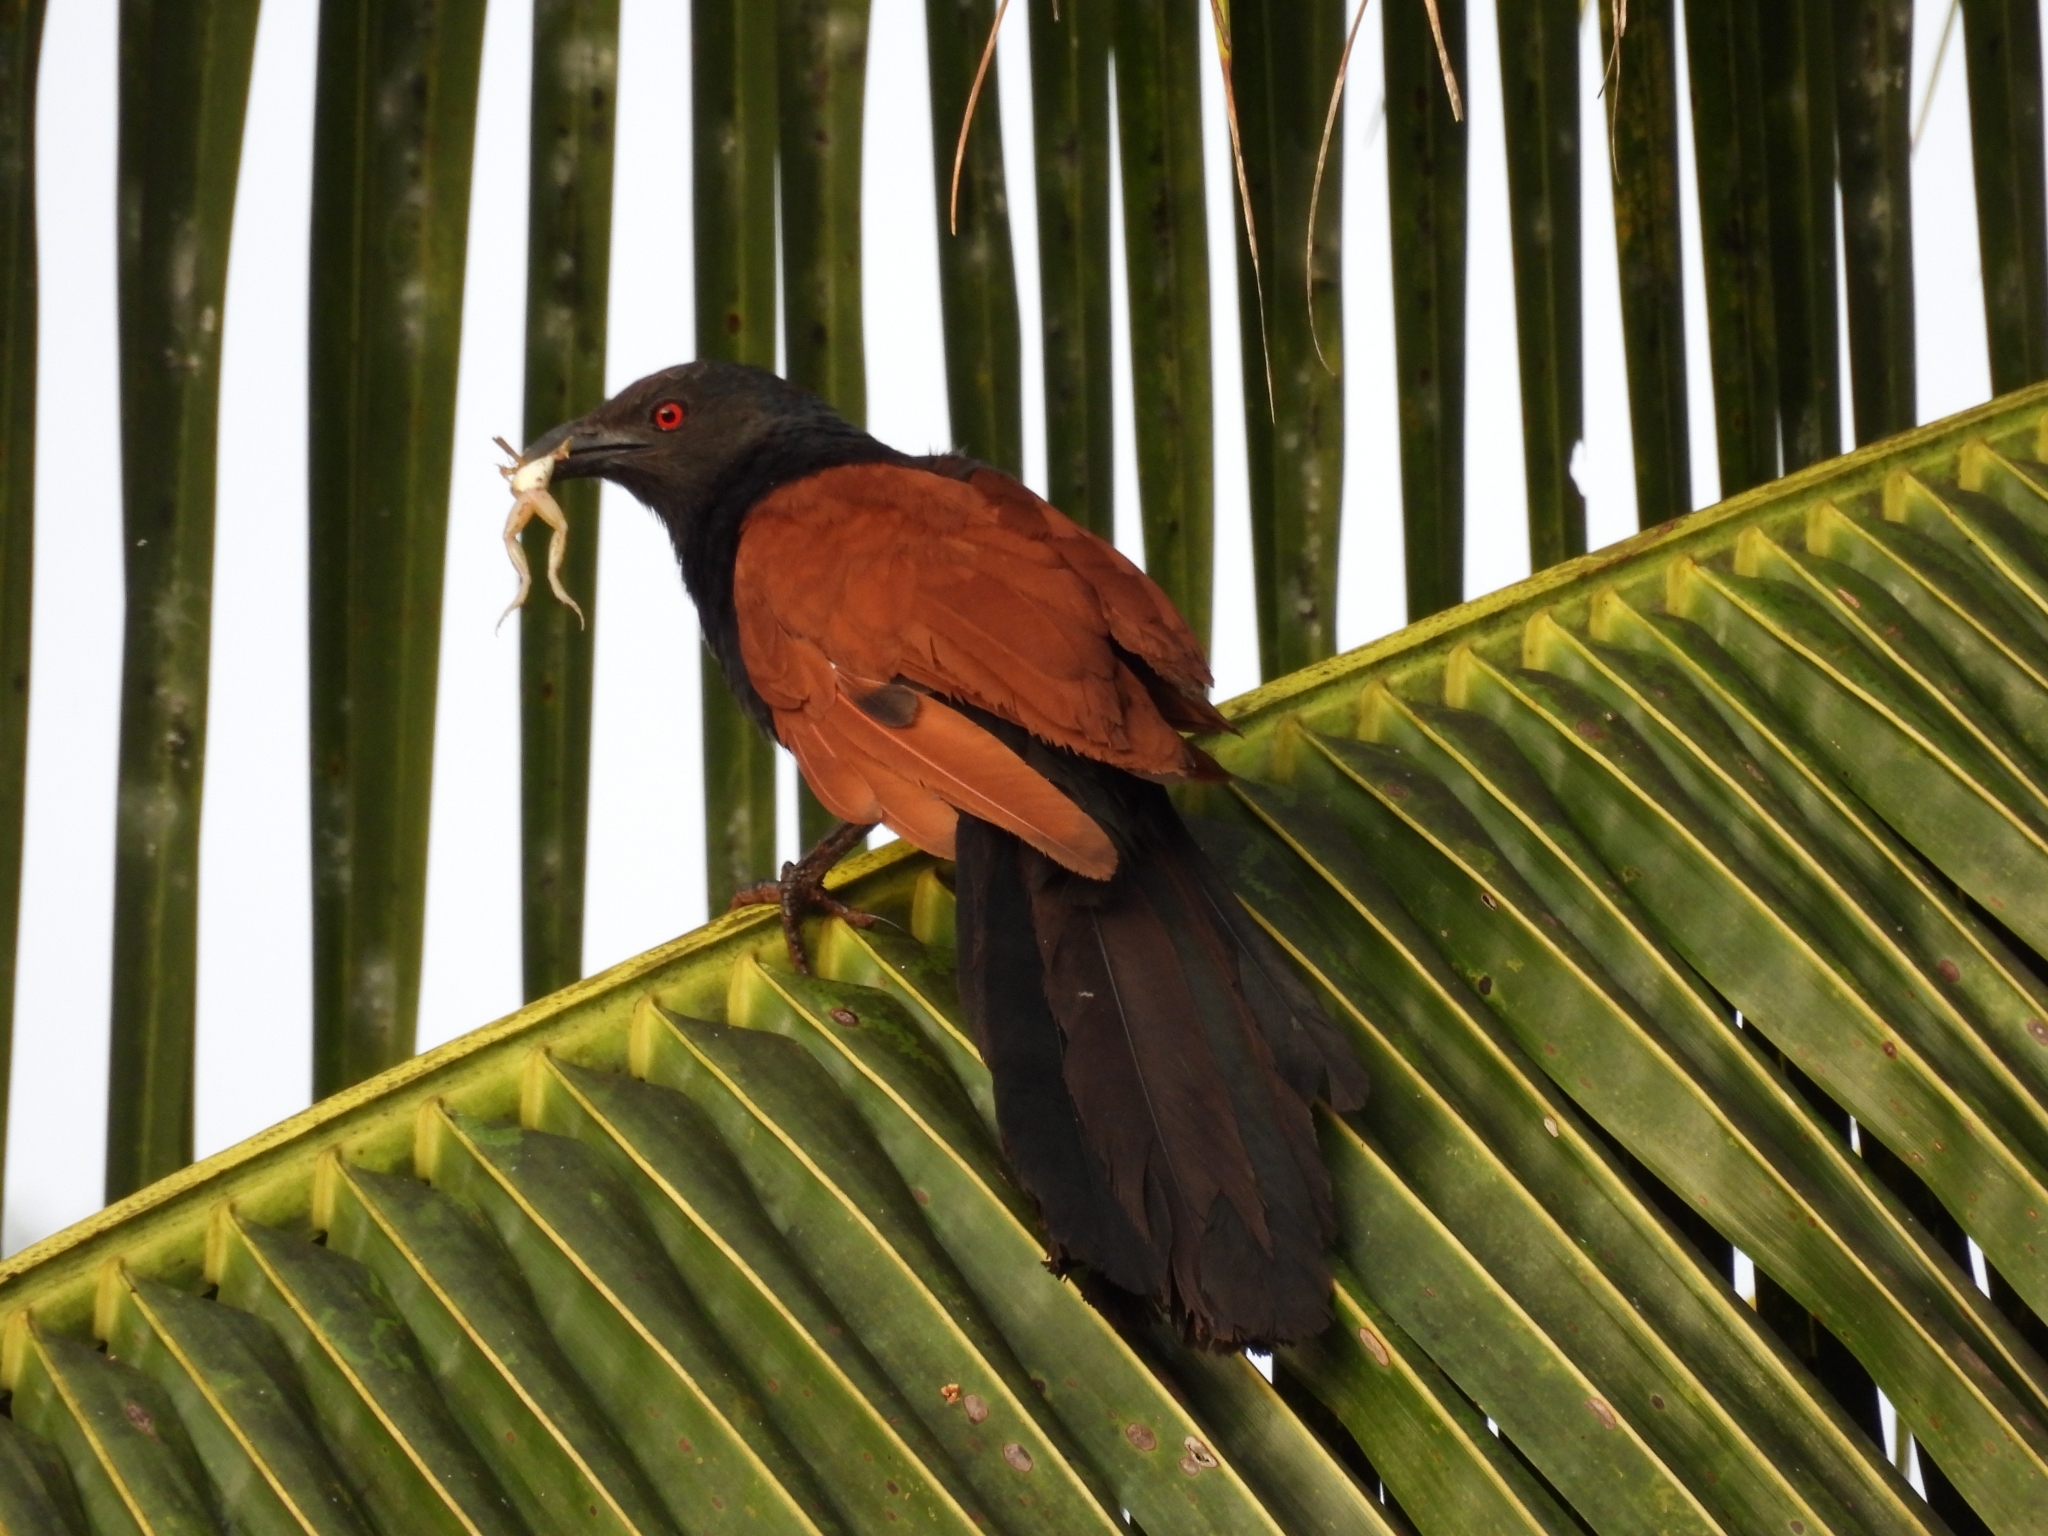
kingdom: Animalia
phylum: Chordata
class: Aves
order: Cuculiformes
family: Cuculidae
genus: Centropus
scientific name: Centropus sinensis
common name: Greater coucal
